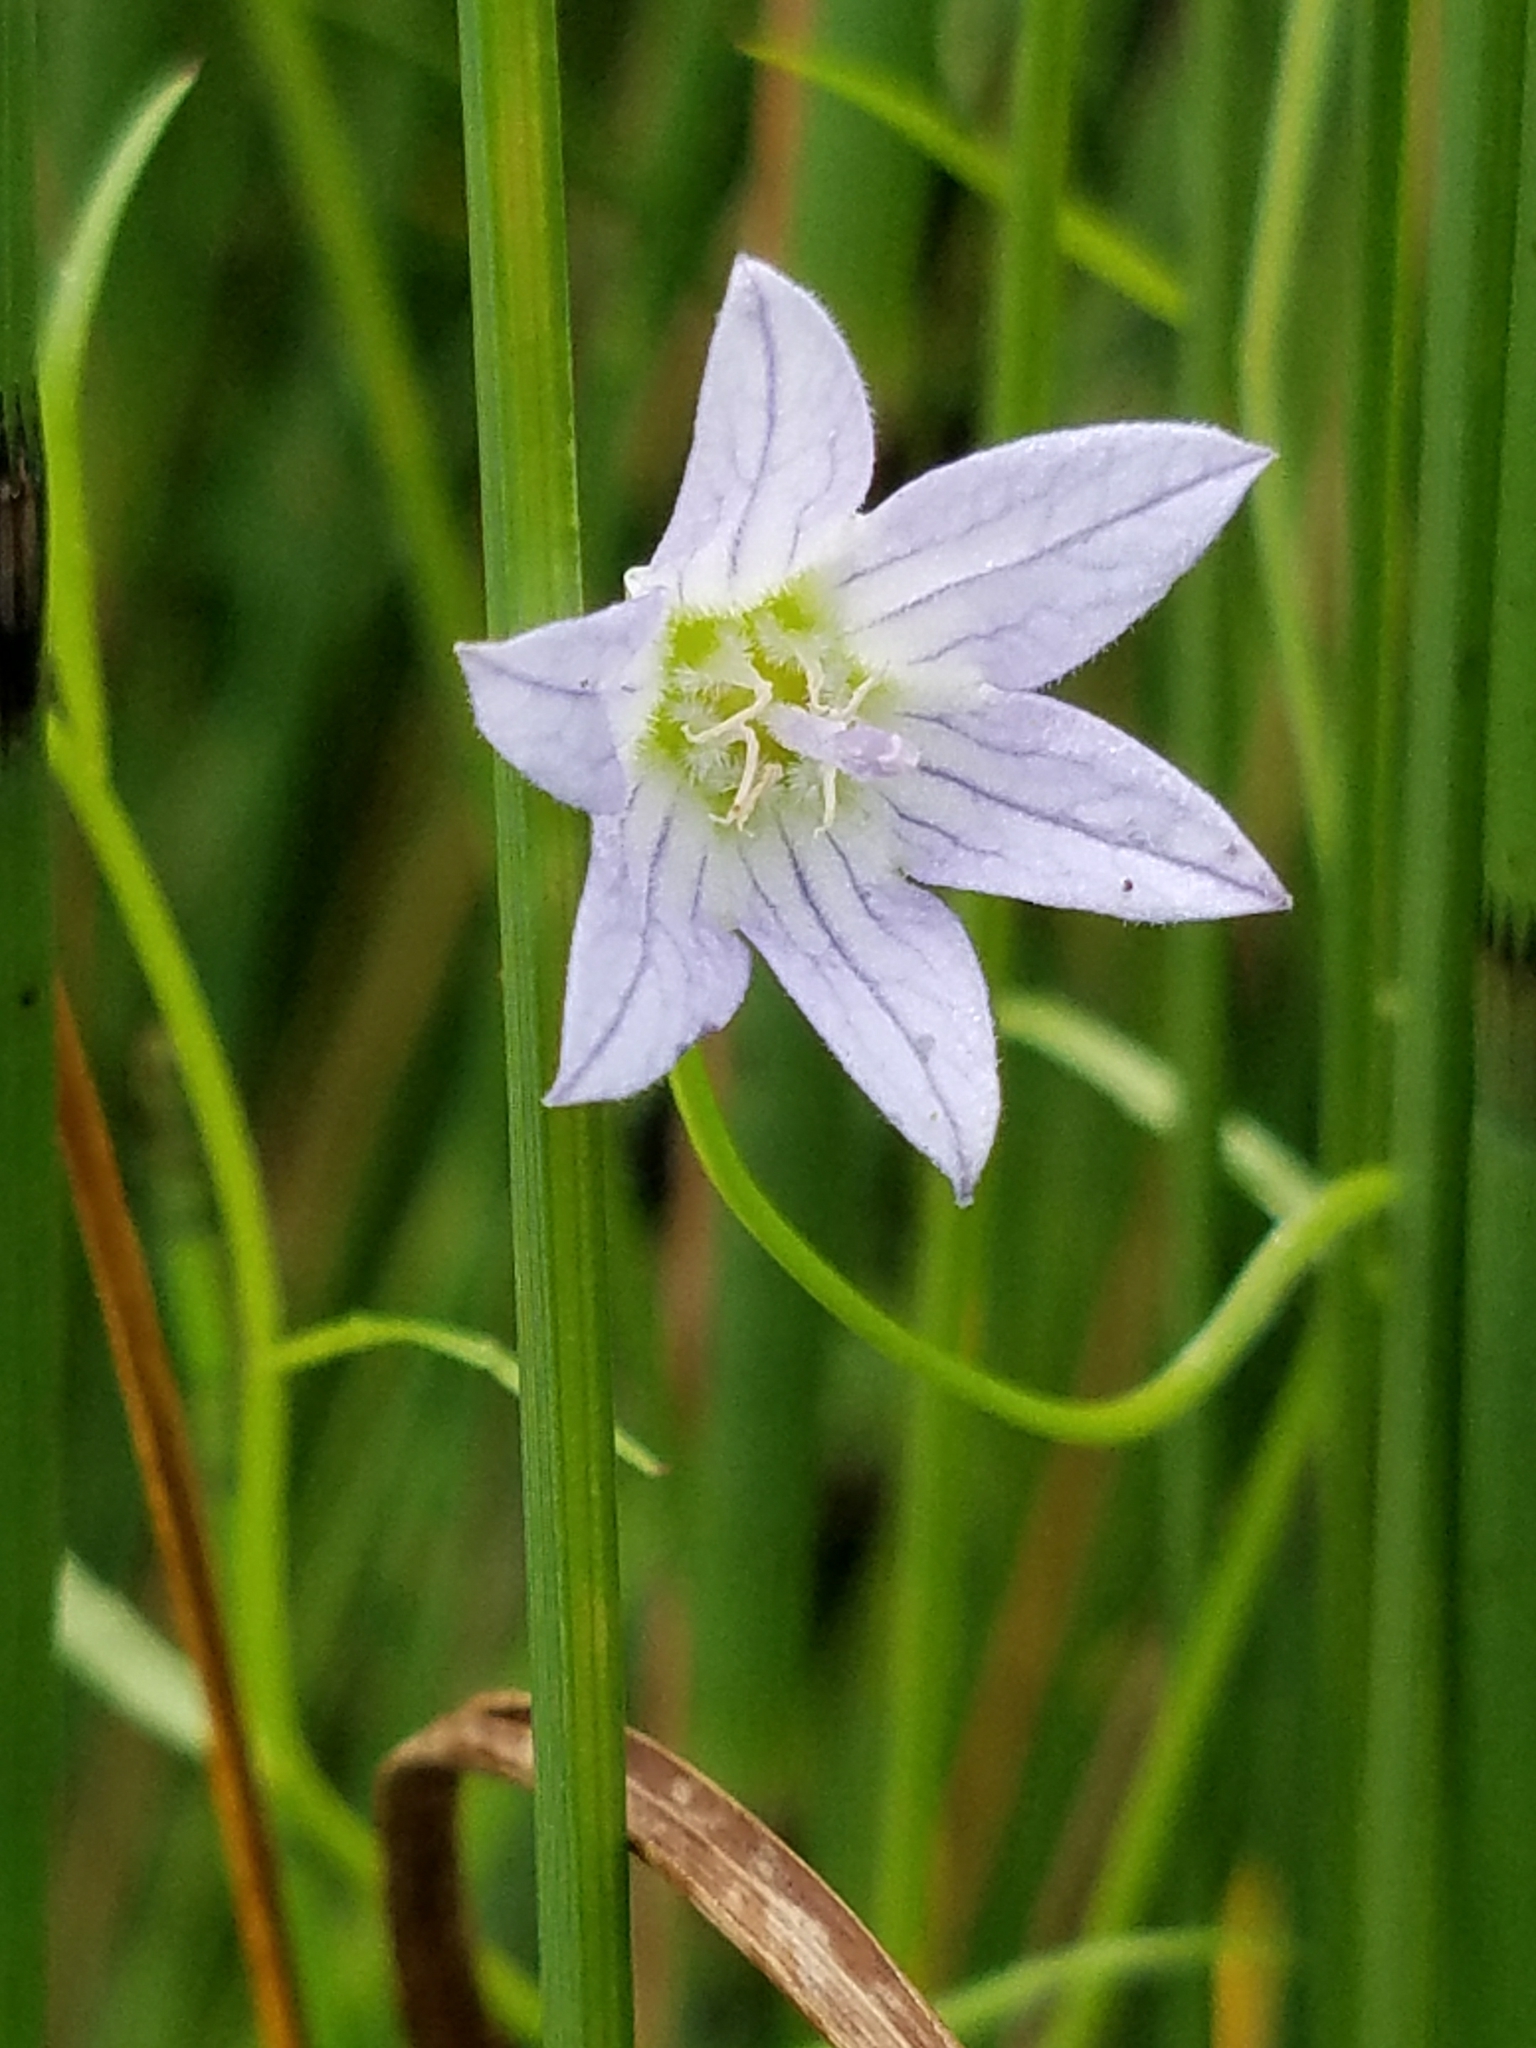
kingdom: Plantae
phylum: Tracheophyta
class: Magnoliopsida
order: Asterales
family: Campanulaceae
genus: Palustricodon
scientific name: Palustricodon aparinoides
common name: Bedstraw bellflower
